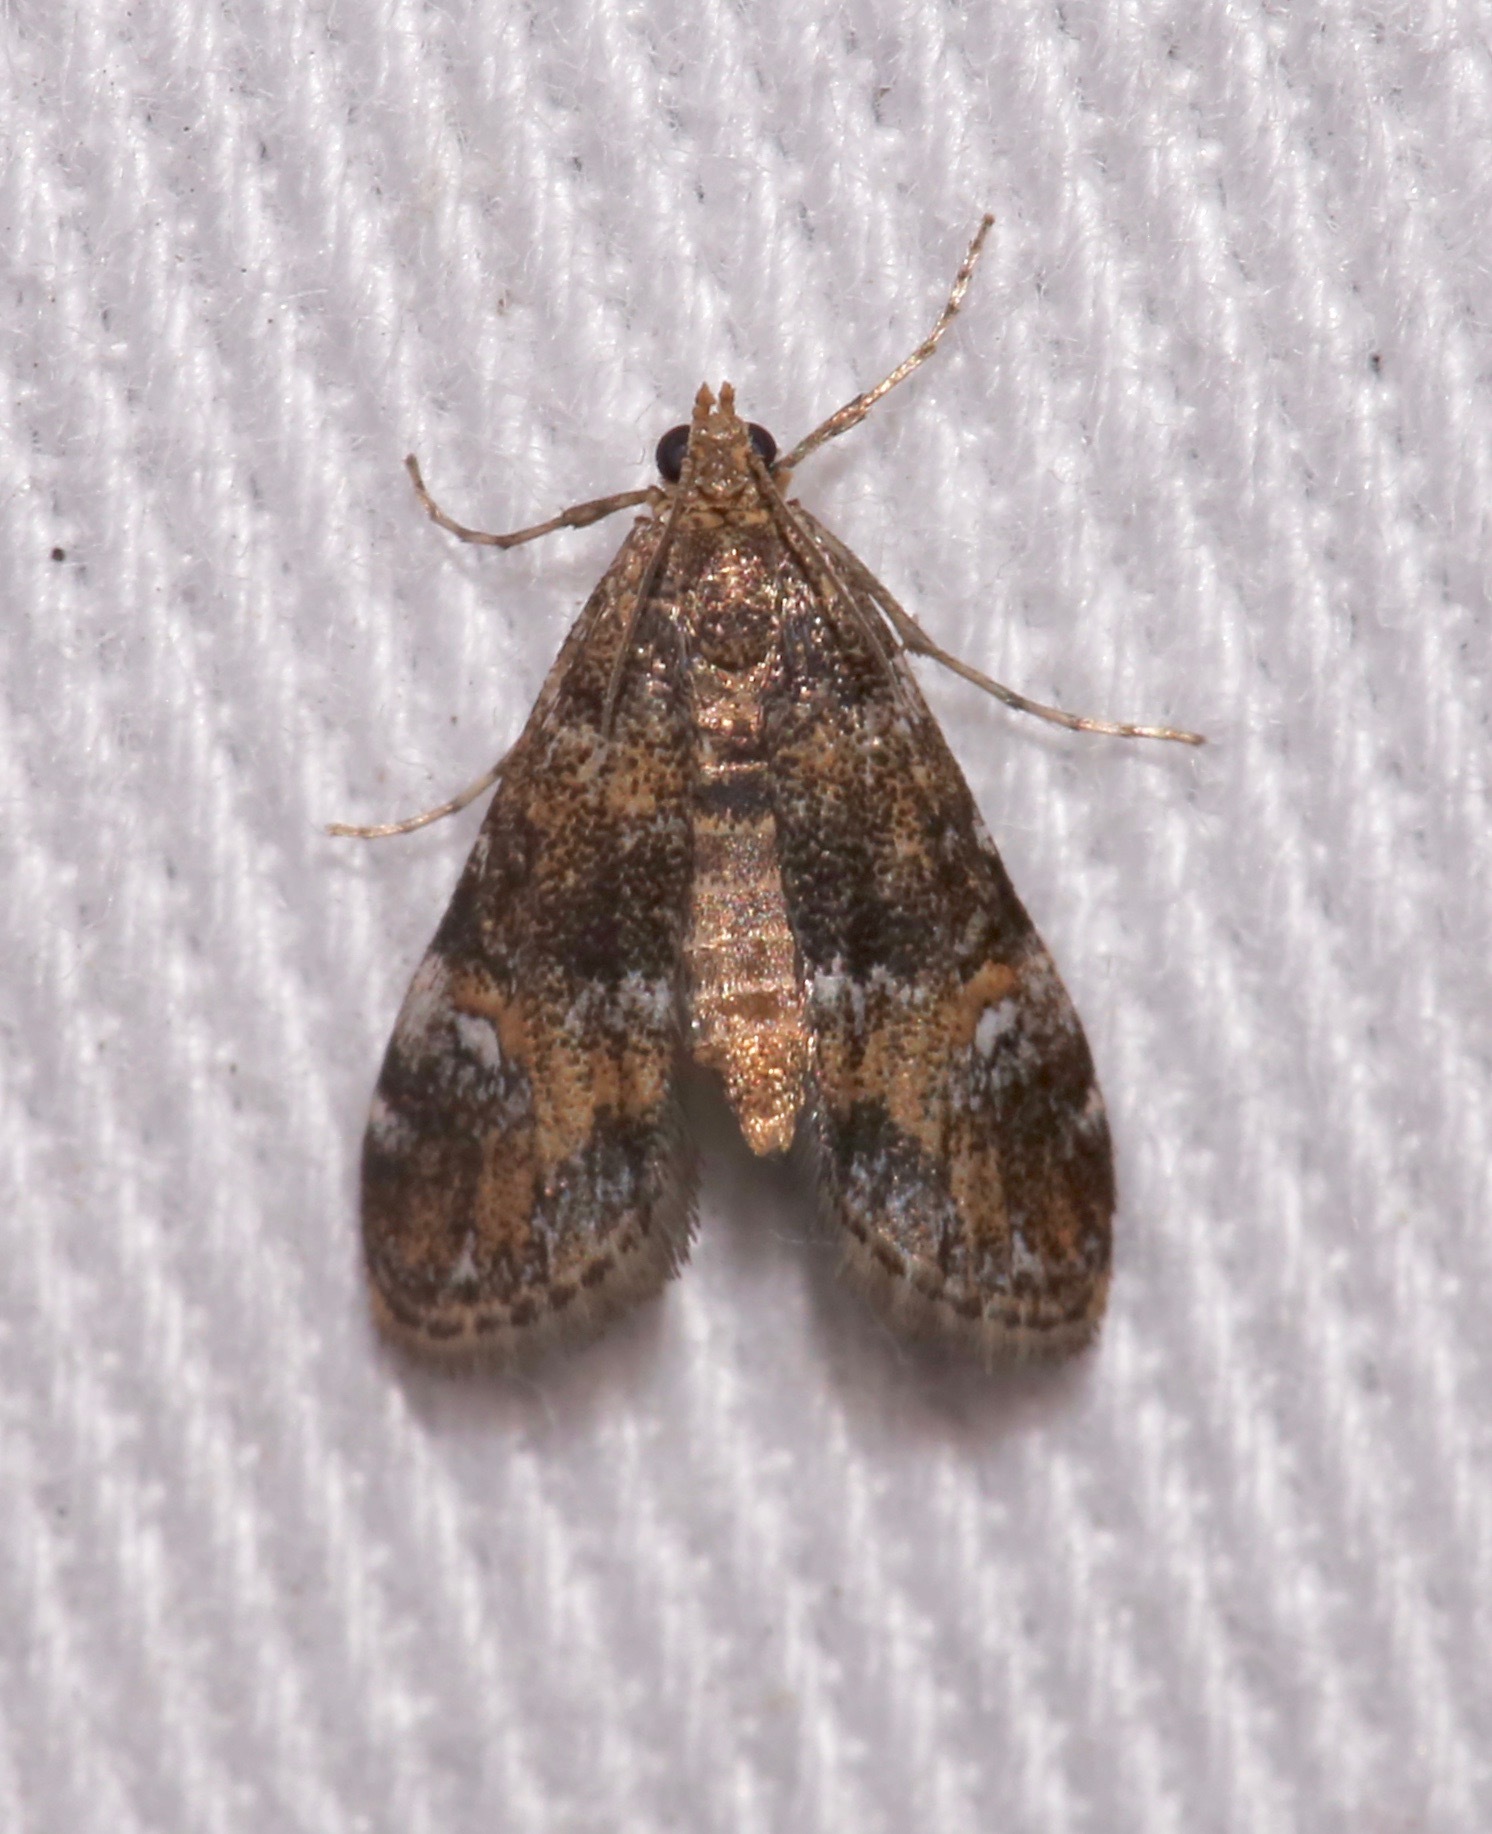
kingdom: Animalia
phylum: Arthropoda
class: Insecta
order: Lepidoptera
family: Crambidae
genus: Elophila
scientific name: Elophila obliteralis
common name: Waterlily leafcutter moth
